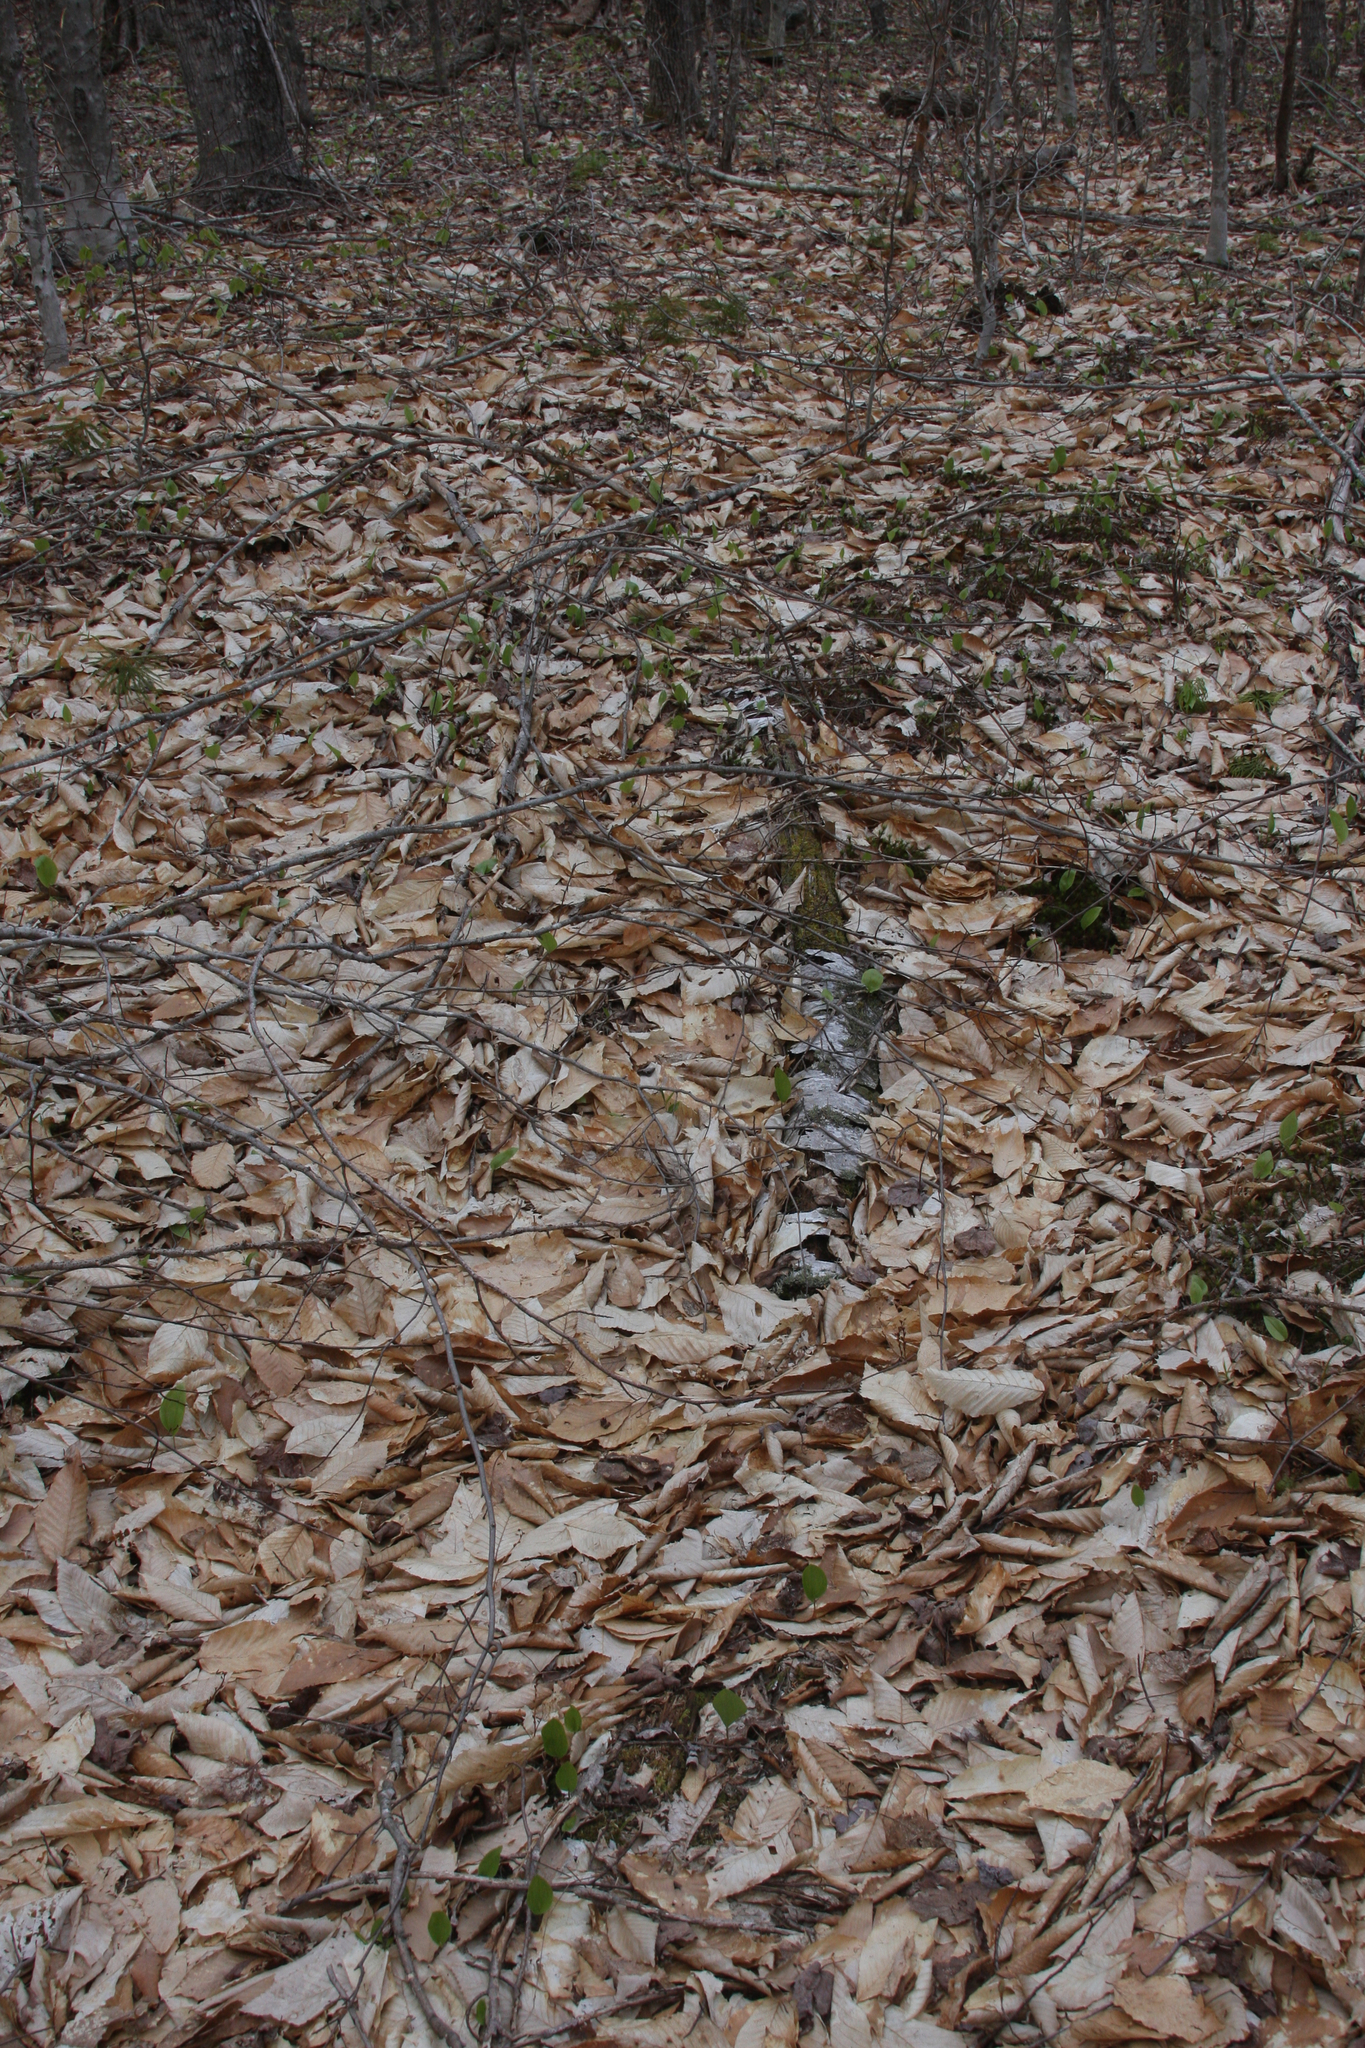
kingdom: Plantae
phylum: Tracheophyta
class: Magnoliopsida
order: Fagales
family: Fagaceae
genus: Fagus
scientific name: Fagus grandifolia
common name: American beech
